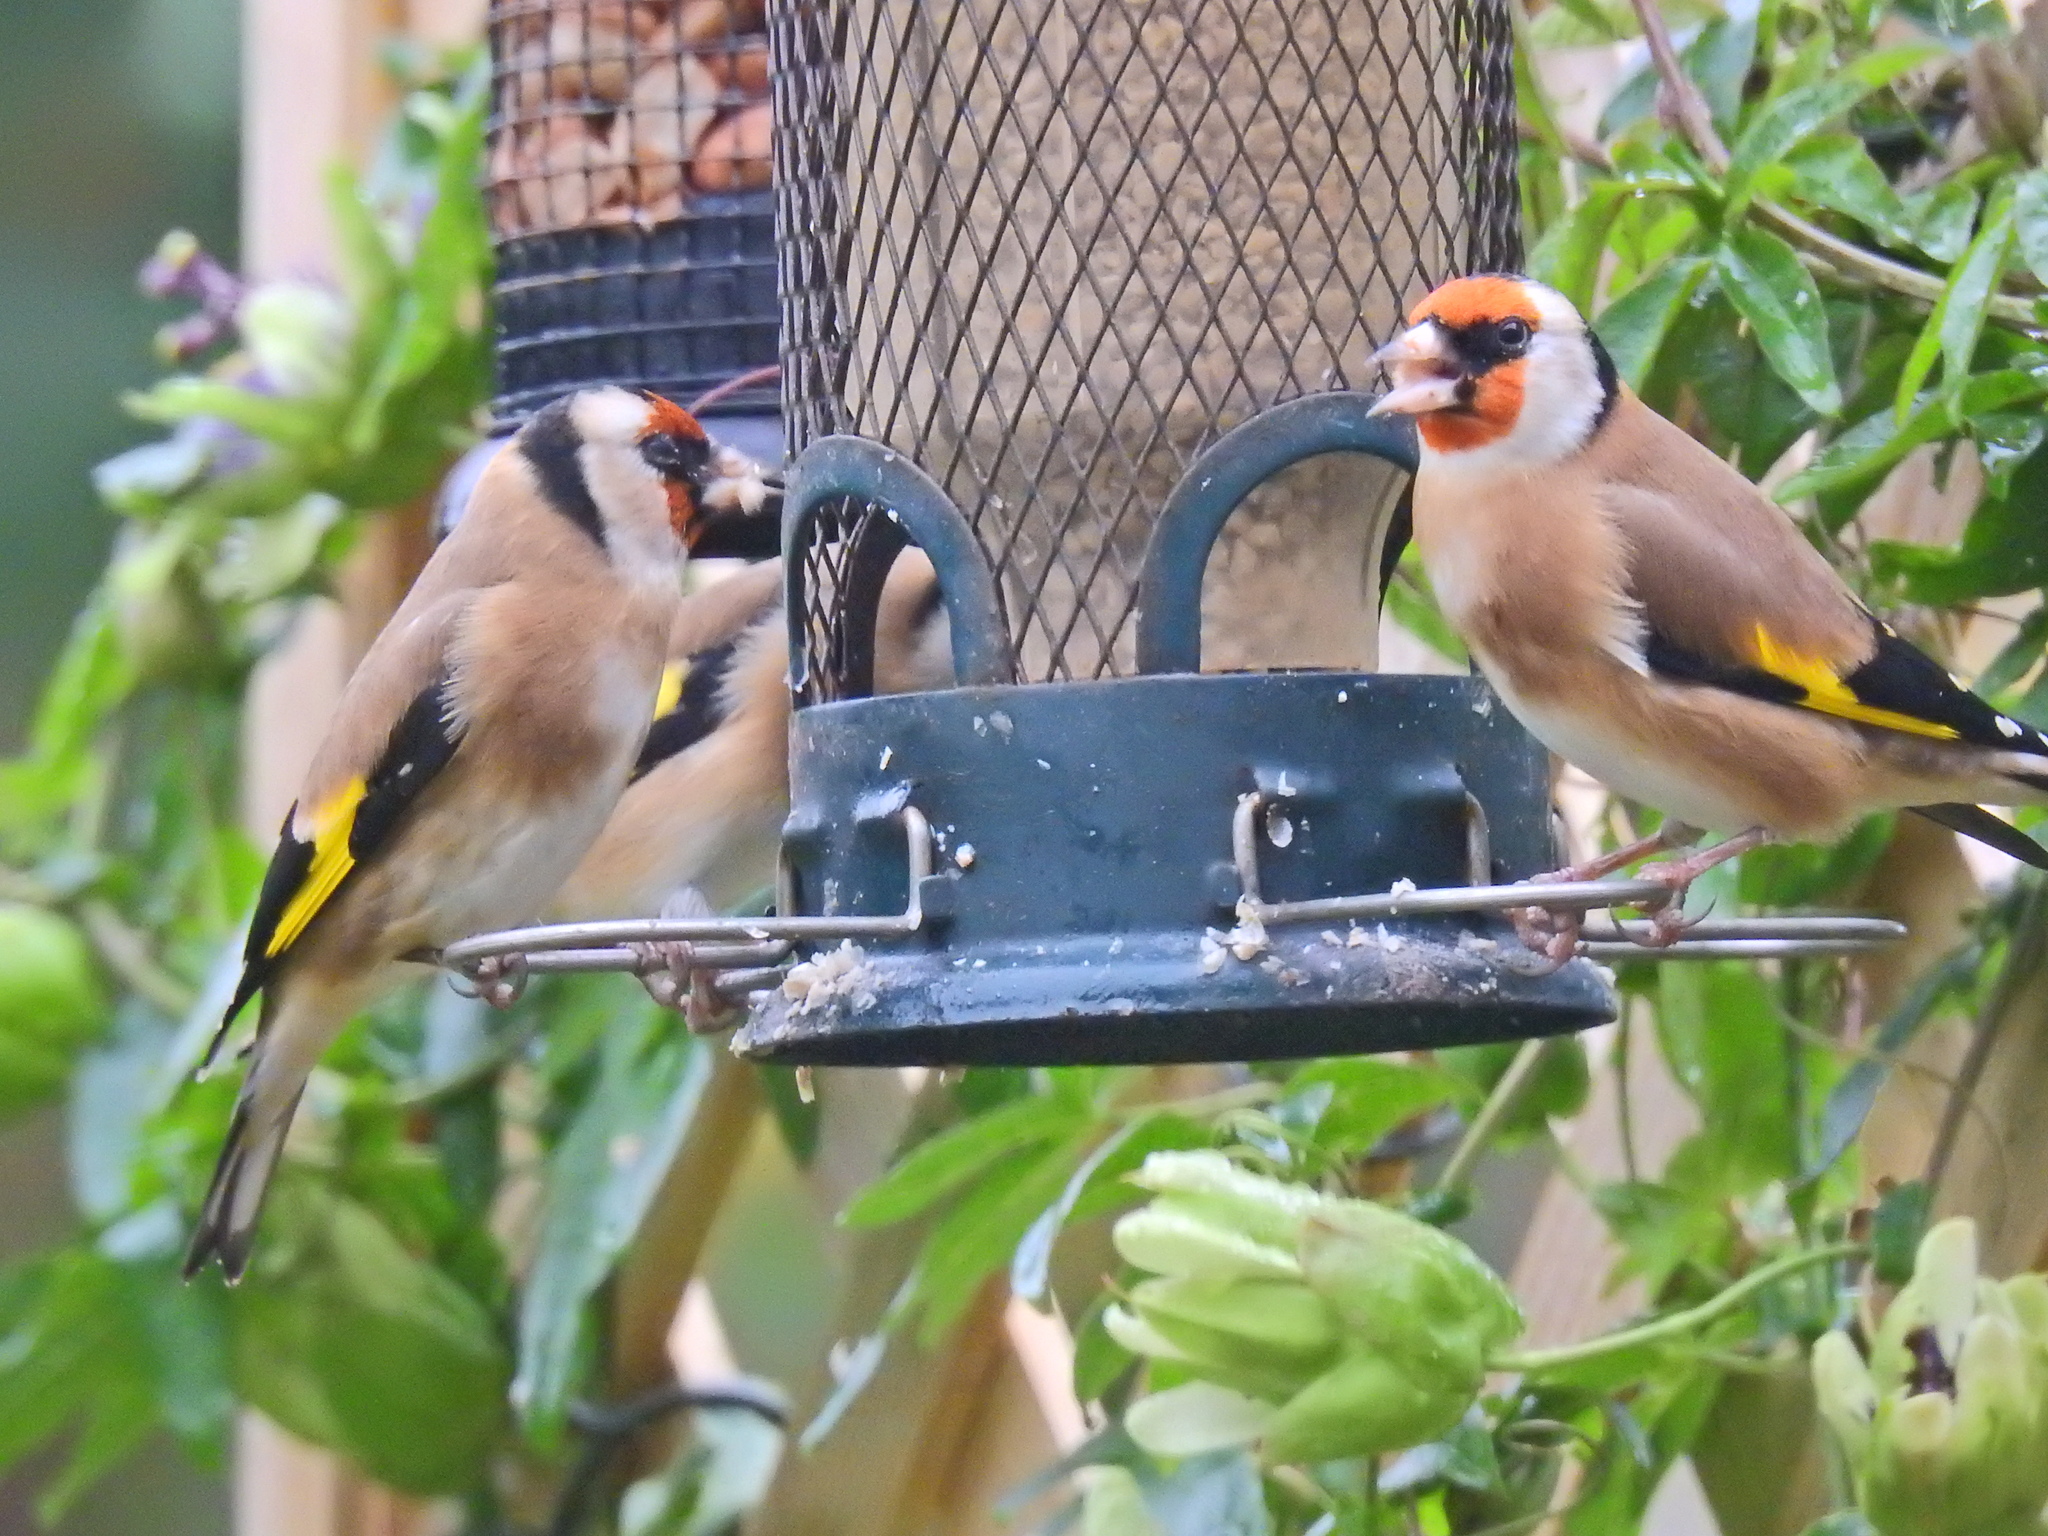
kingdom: Animalia
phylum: Chordata
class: Aves
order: Passeriformes
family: Fringillidae
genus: Carduelis
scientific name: Carduelis carduelis
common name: European goldfinch
